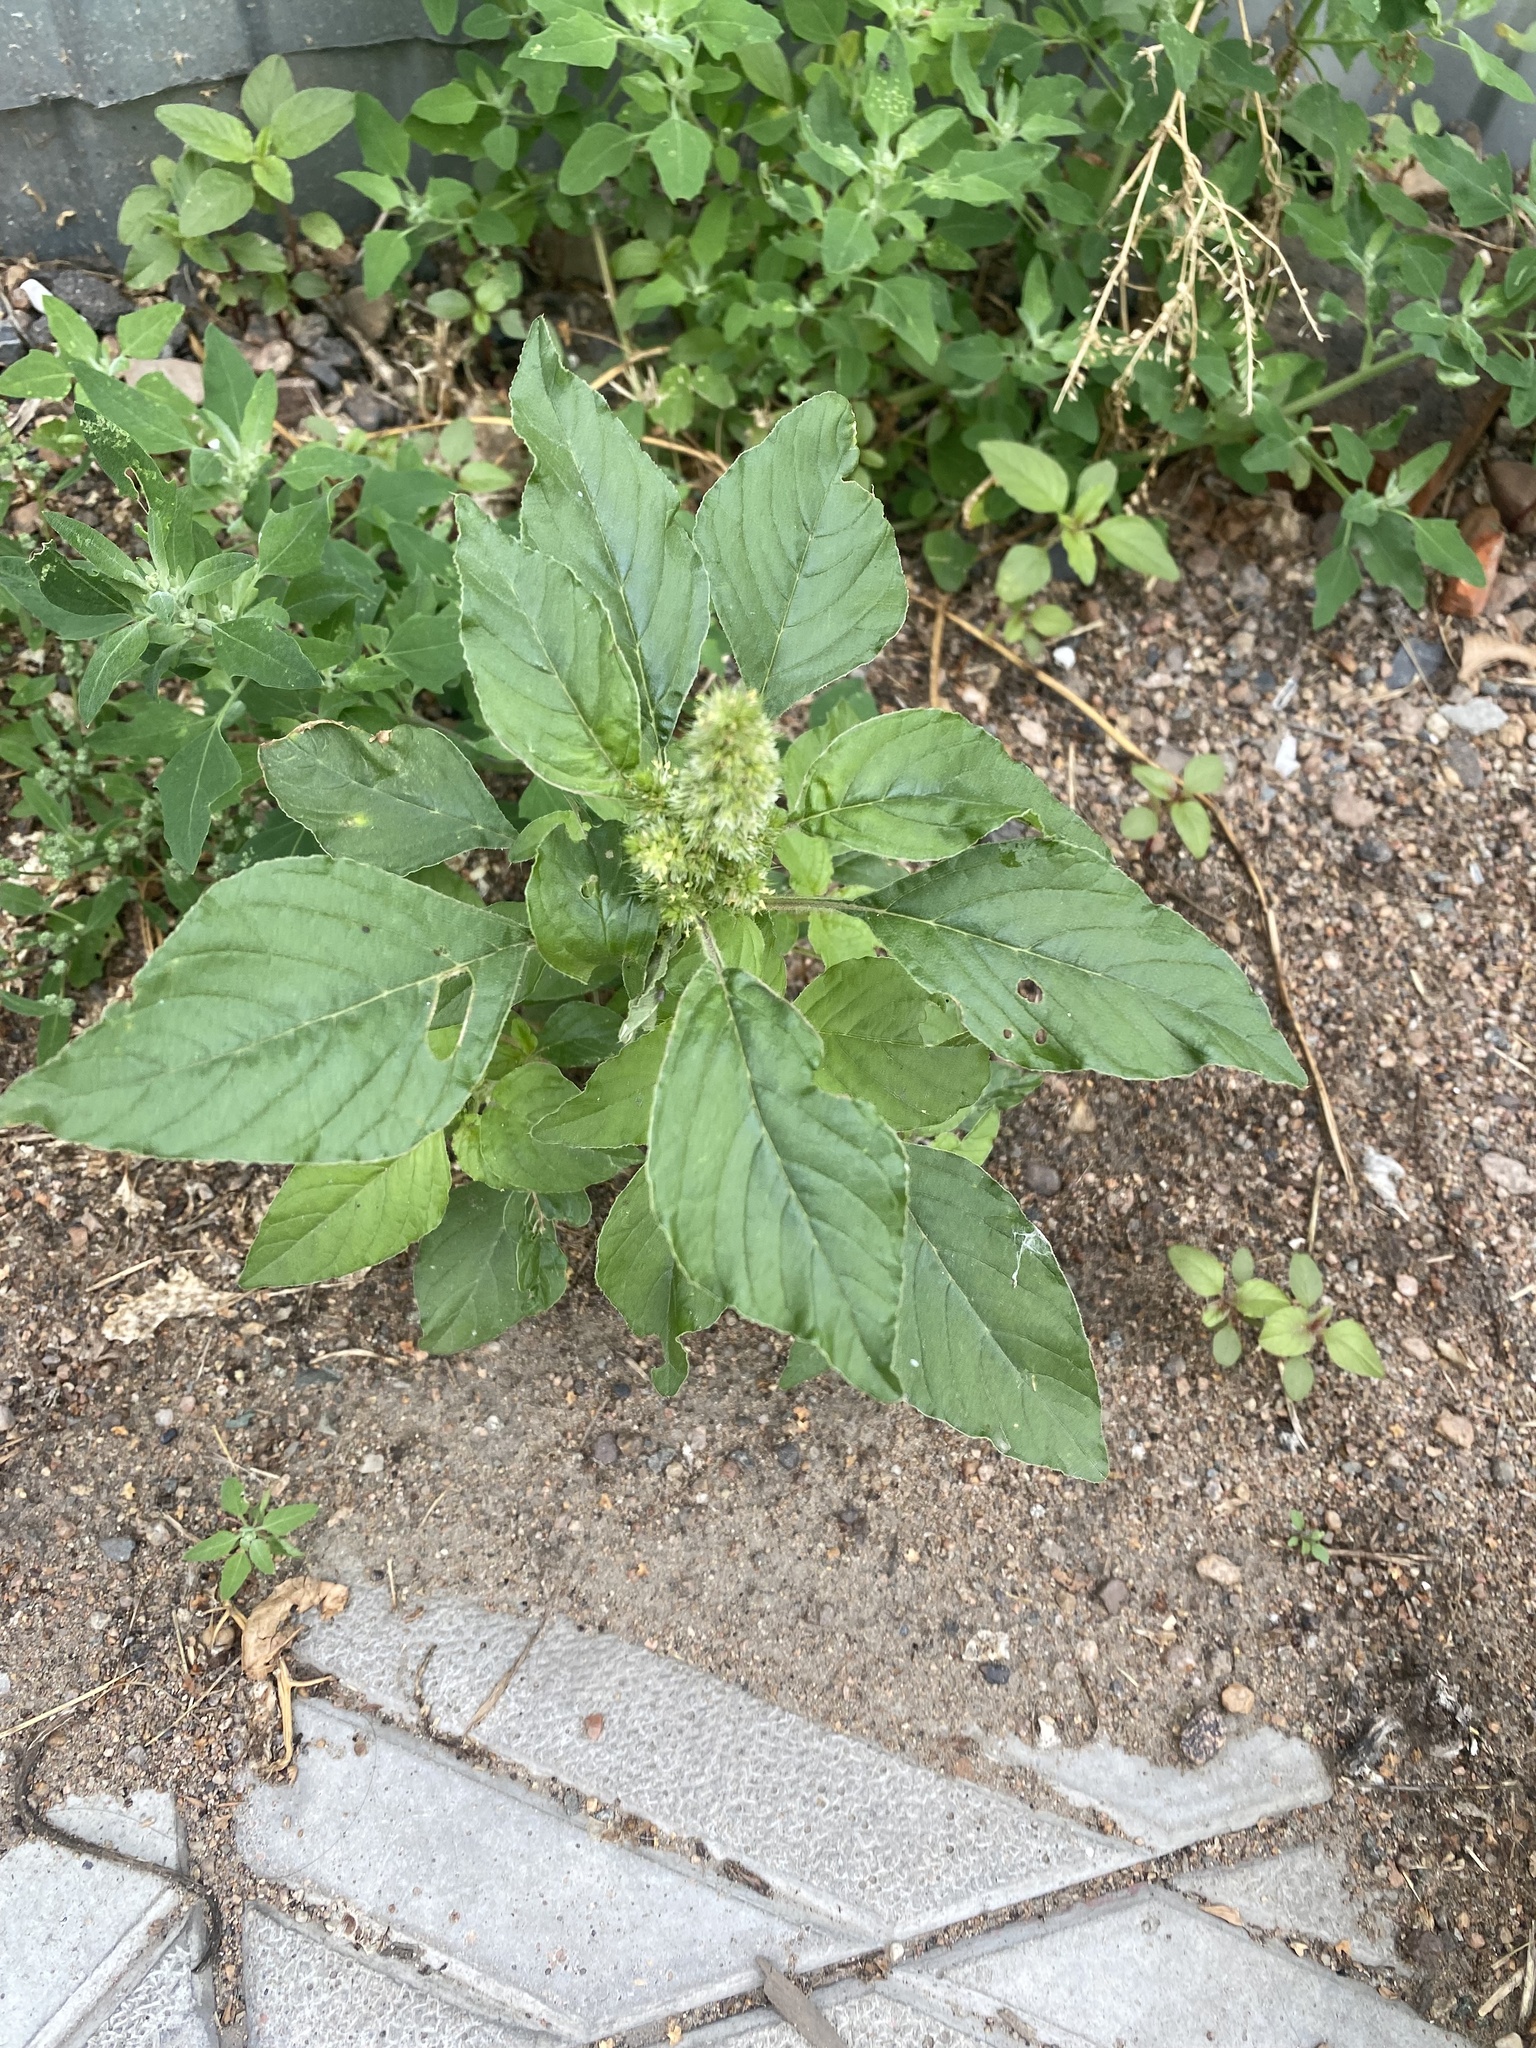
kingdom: Plantae
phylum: Tracheophyta
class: Magnoliopsida
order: Caryophyllales
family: Amaranthaceae
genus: Amaranthus
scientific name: Amaranthus retroflexus
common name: Redroot amaranth
